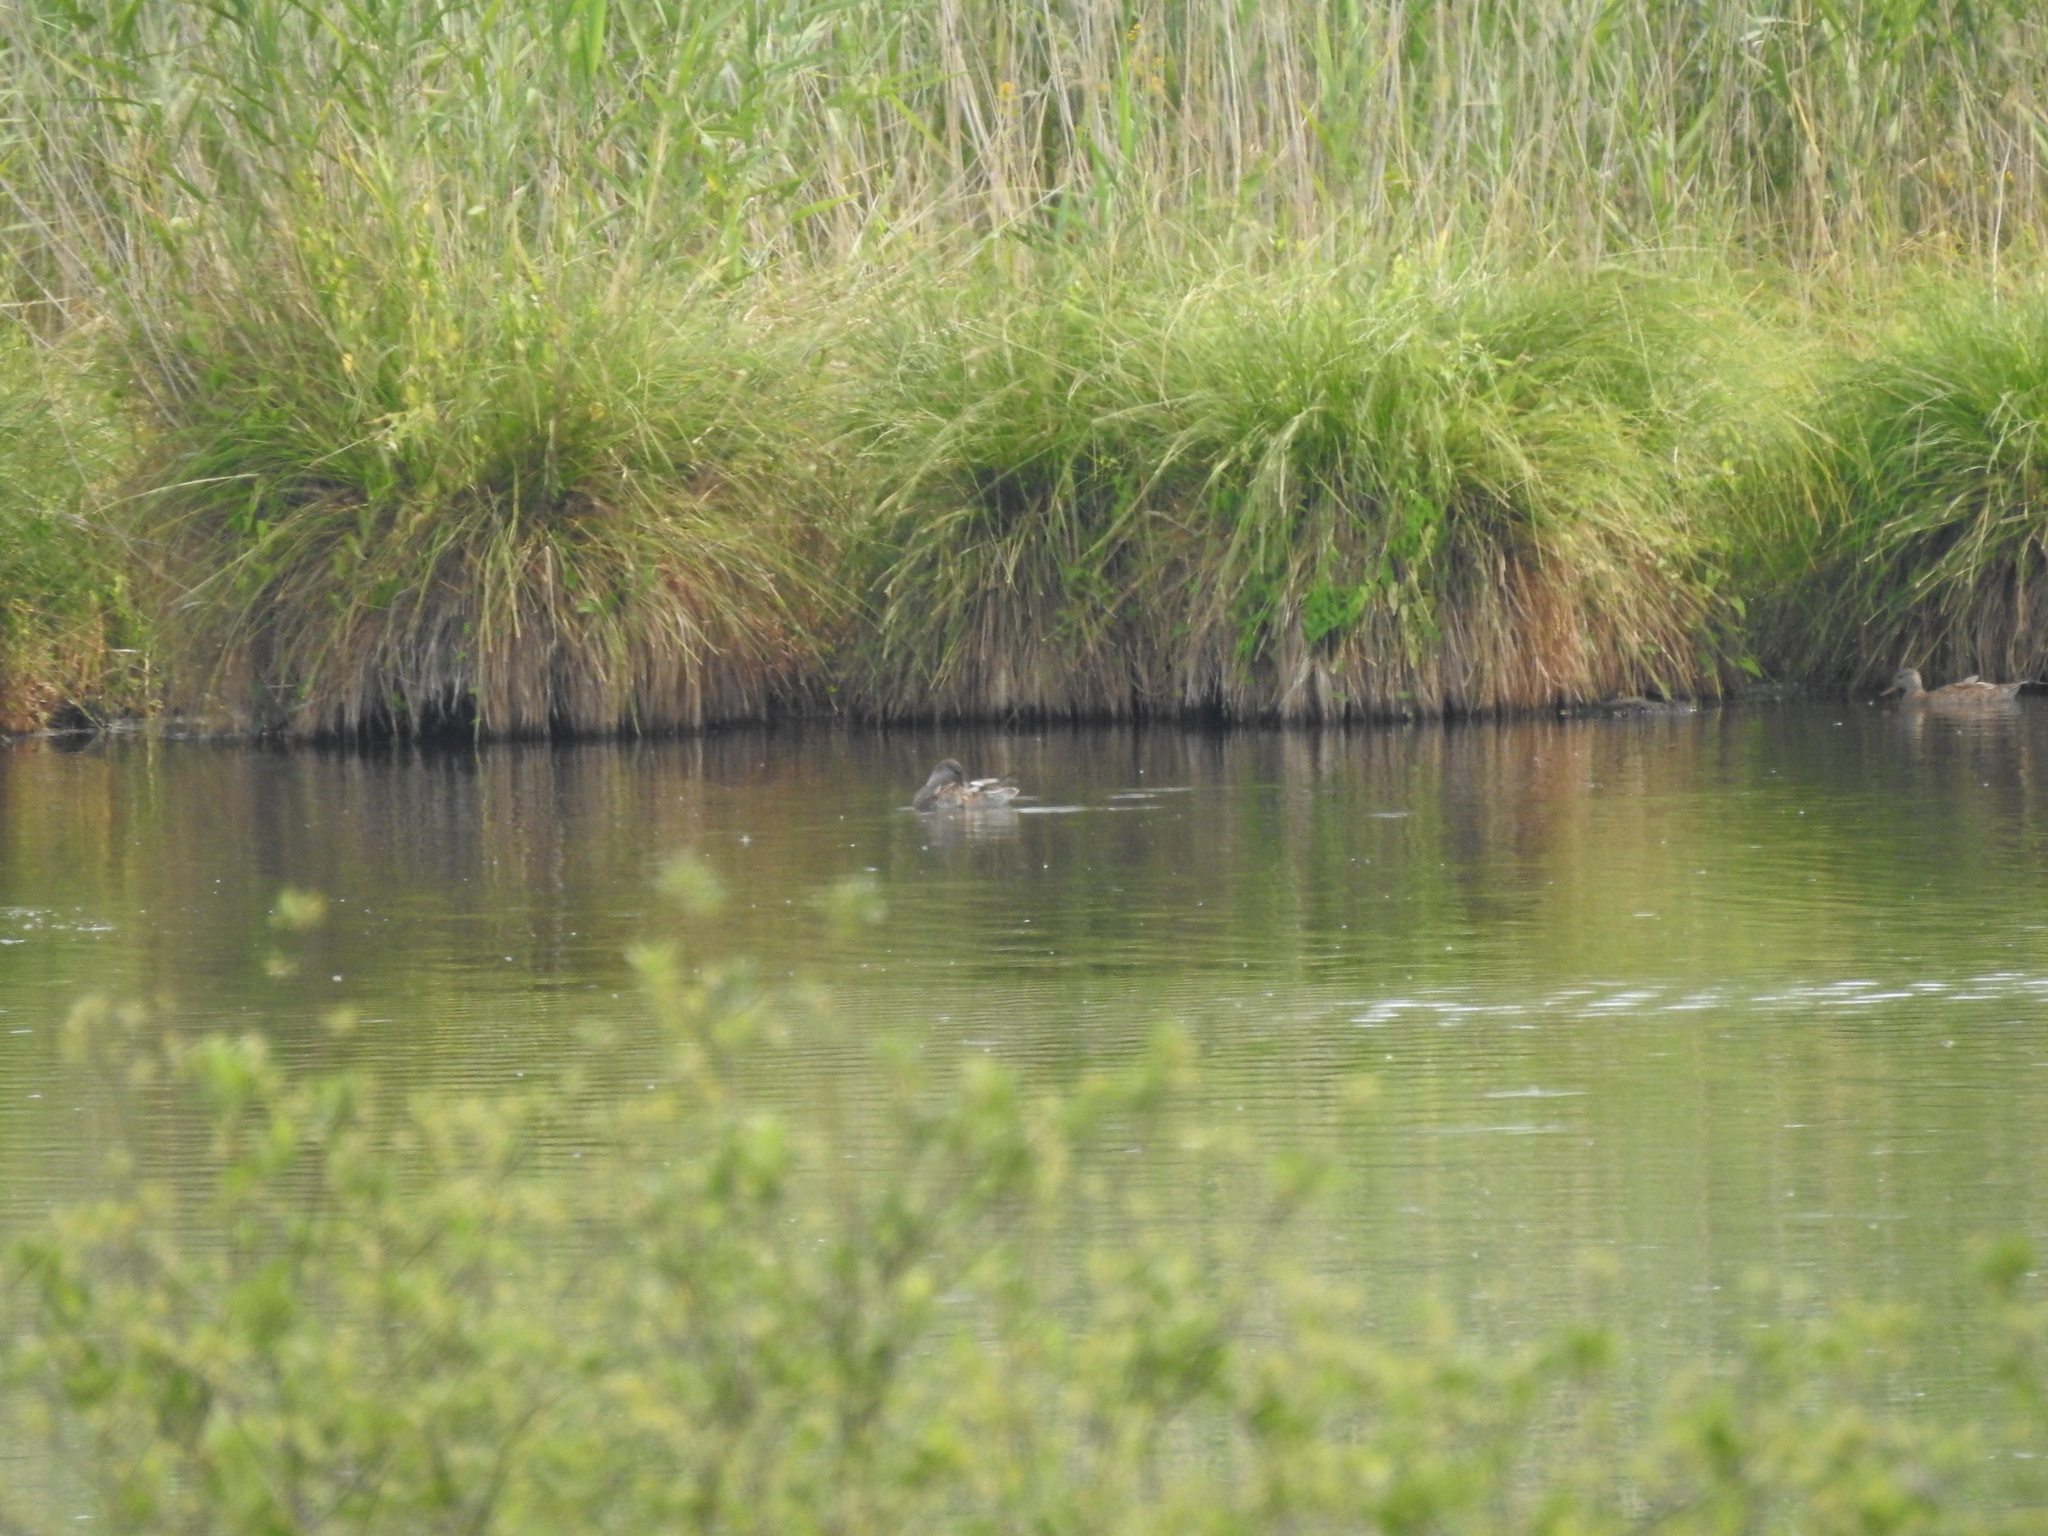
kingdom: Animalia
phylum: Chordata
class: Aves
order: Anseriformes
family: Anatidae
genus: Anas
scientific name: Anas platyrhynchos
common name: Mallard
